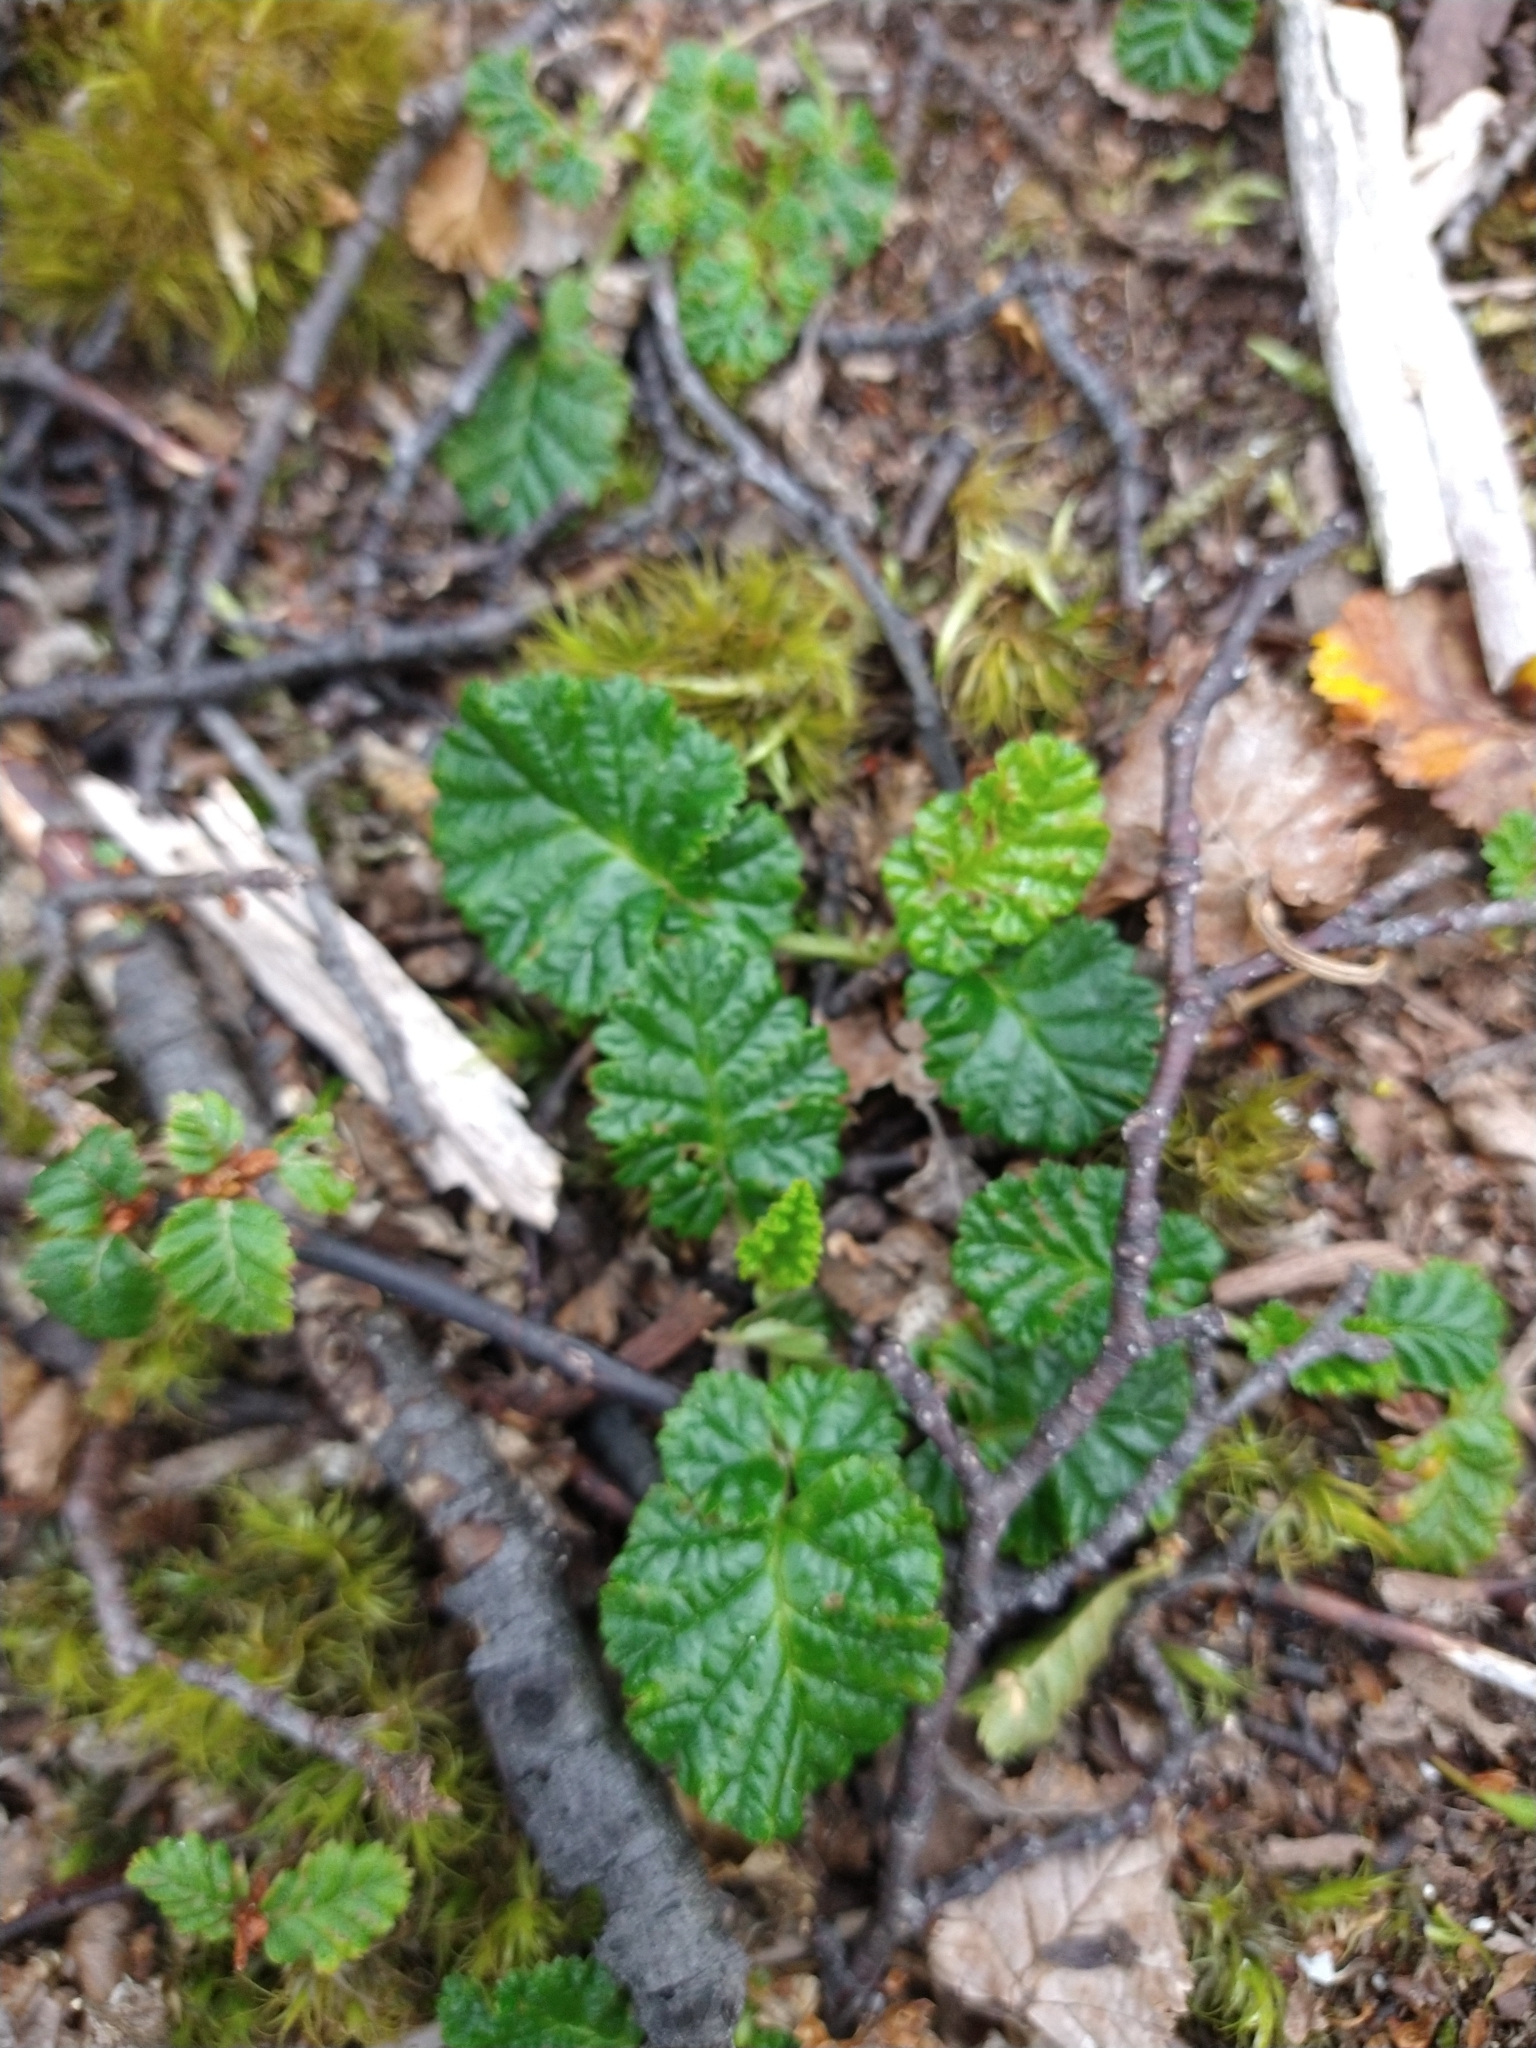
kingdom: Plantae
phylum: Tracheophyta
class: Magnoliopsida
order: Rosales
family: Rosaceae
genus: Rubus
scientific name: Rubus geoides
